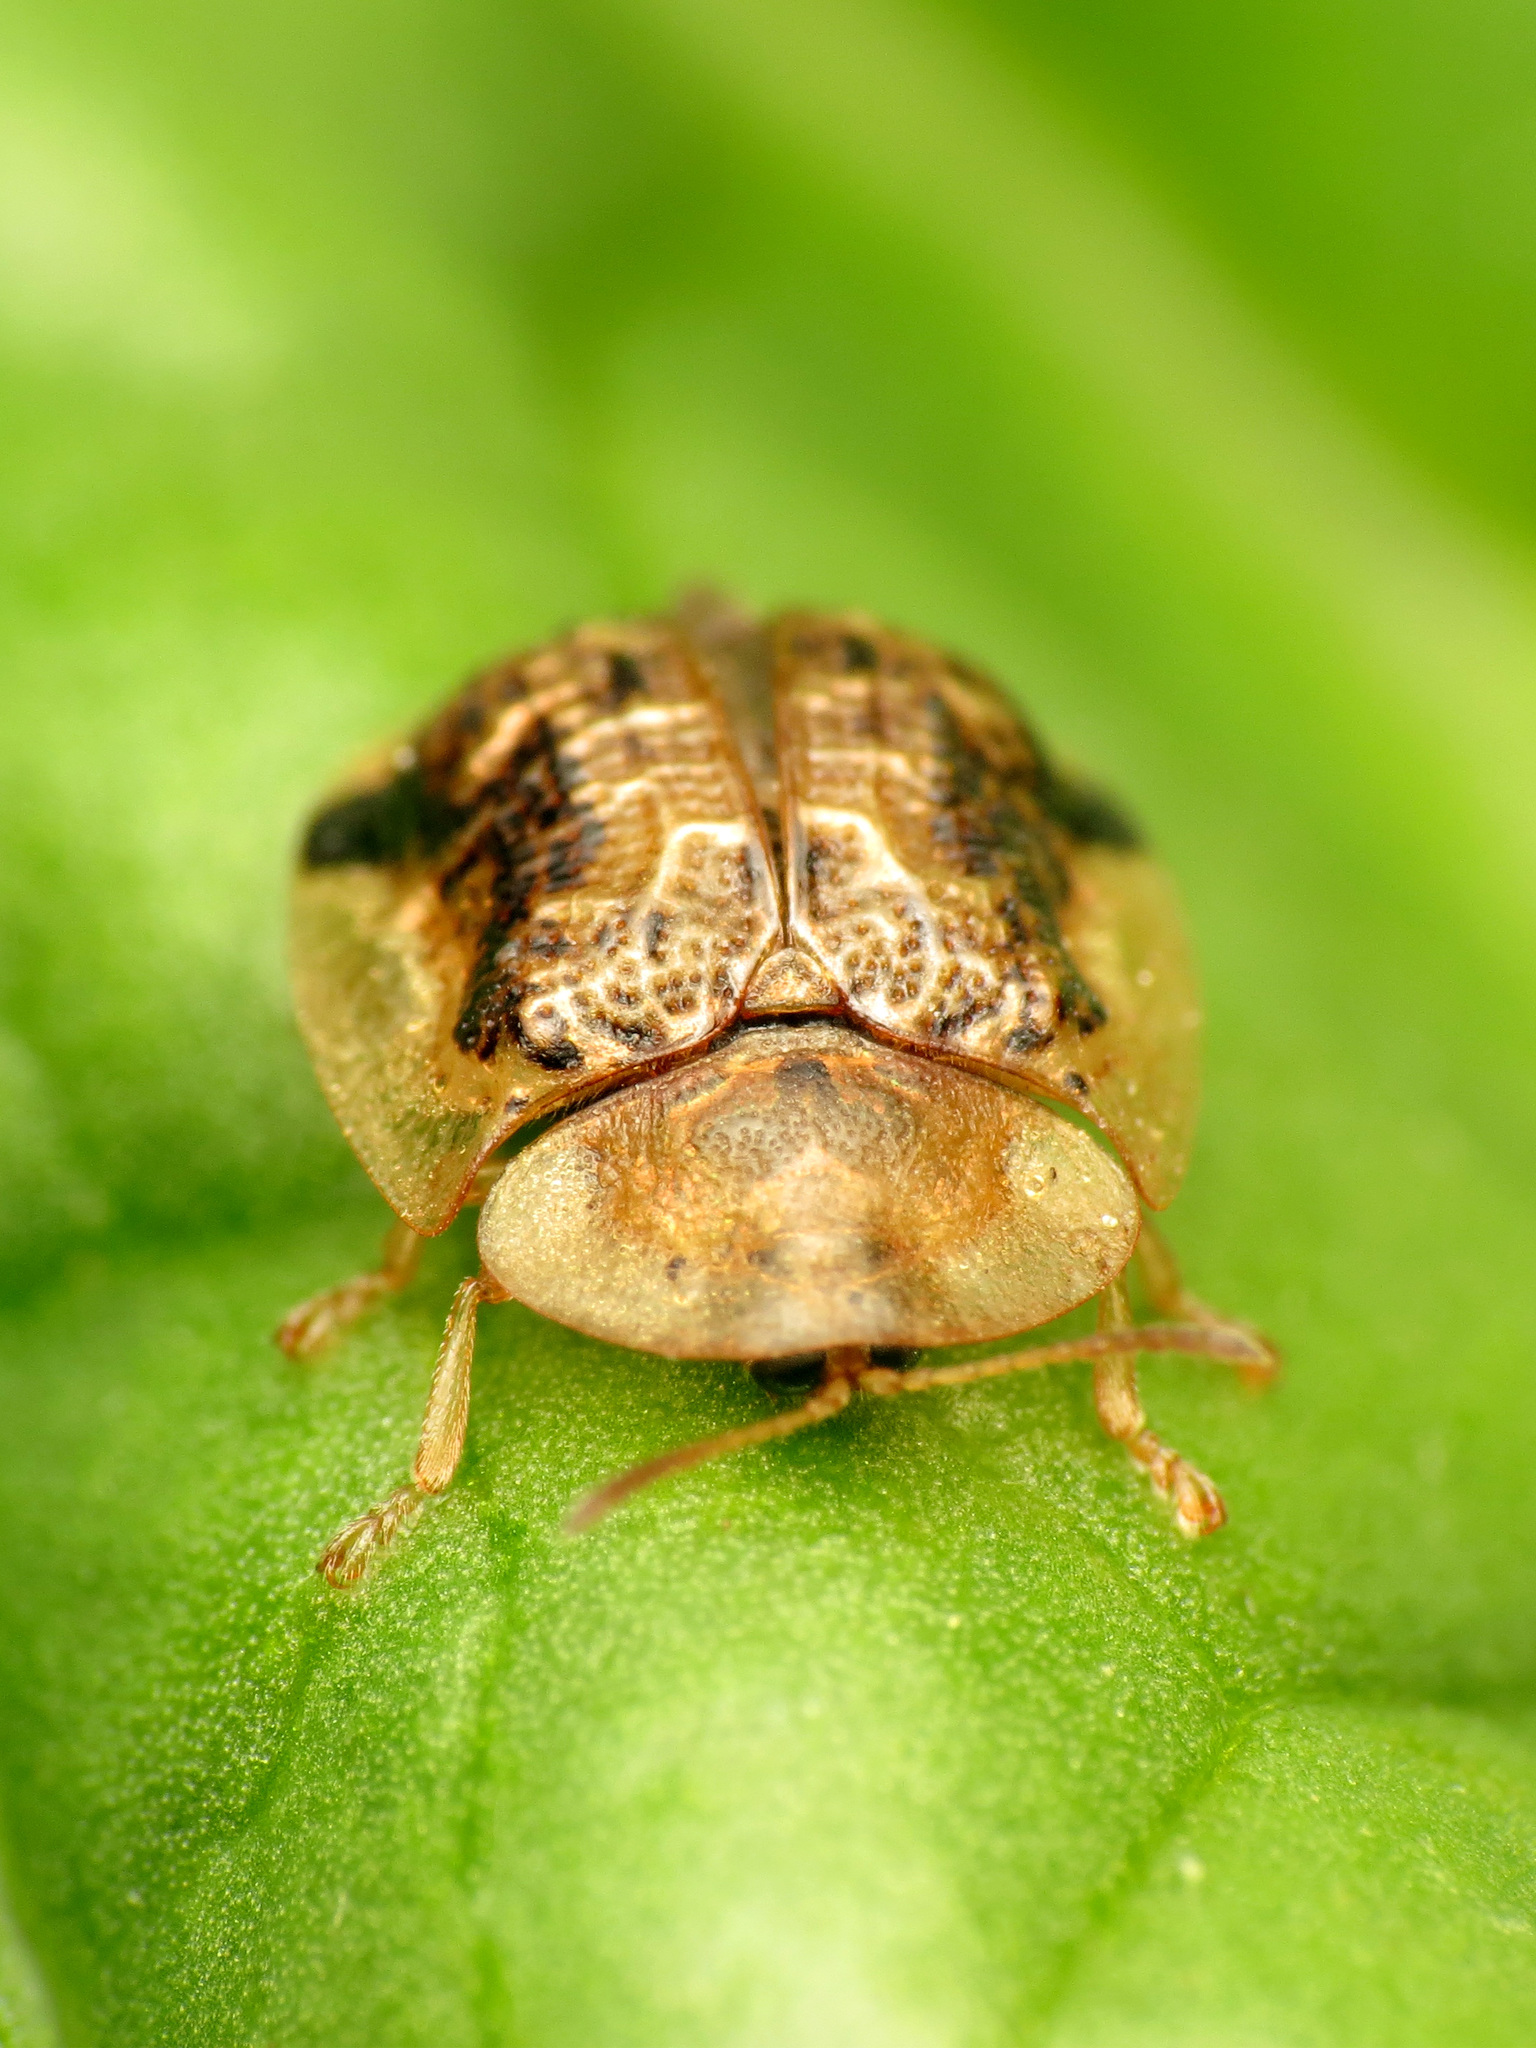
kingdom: Animalia
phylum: Arthropoda
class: Insecta
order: Coleoptera
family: Chrysomelidae
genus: Cassida
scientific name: Cassida piperata
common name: Small tortoise beetle
